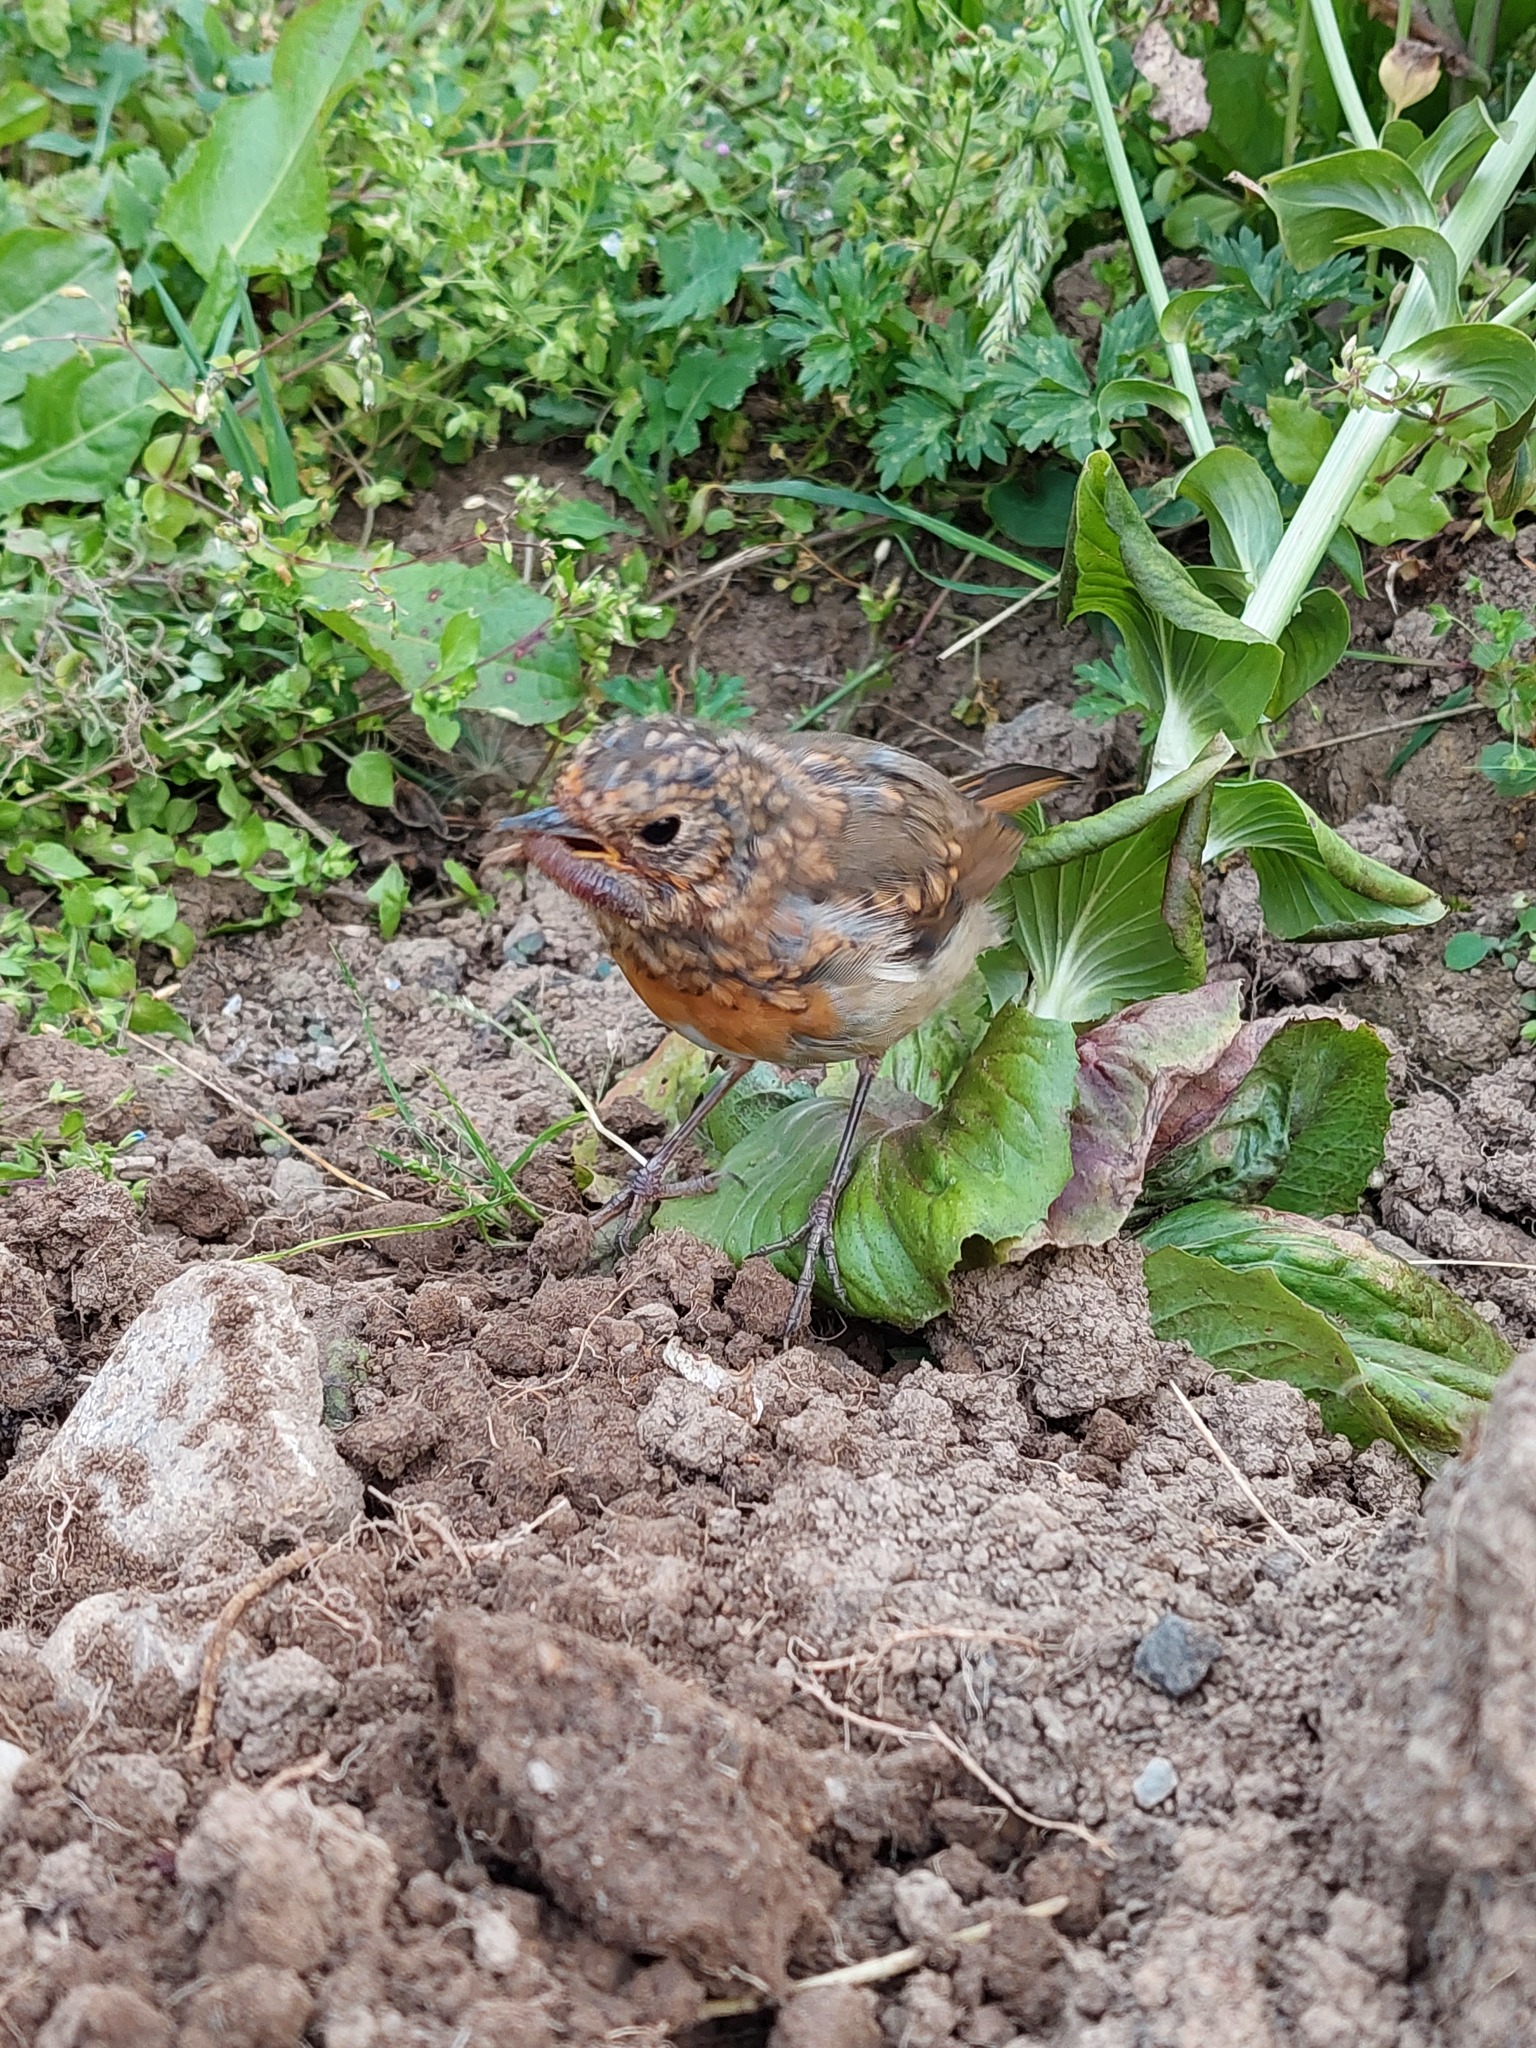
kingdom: Animalia
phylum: Chordata
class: Aves
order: Passeriformes
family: Muscicapidae
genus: Erithacus
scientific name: Erithacus rubecula
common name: European robin
